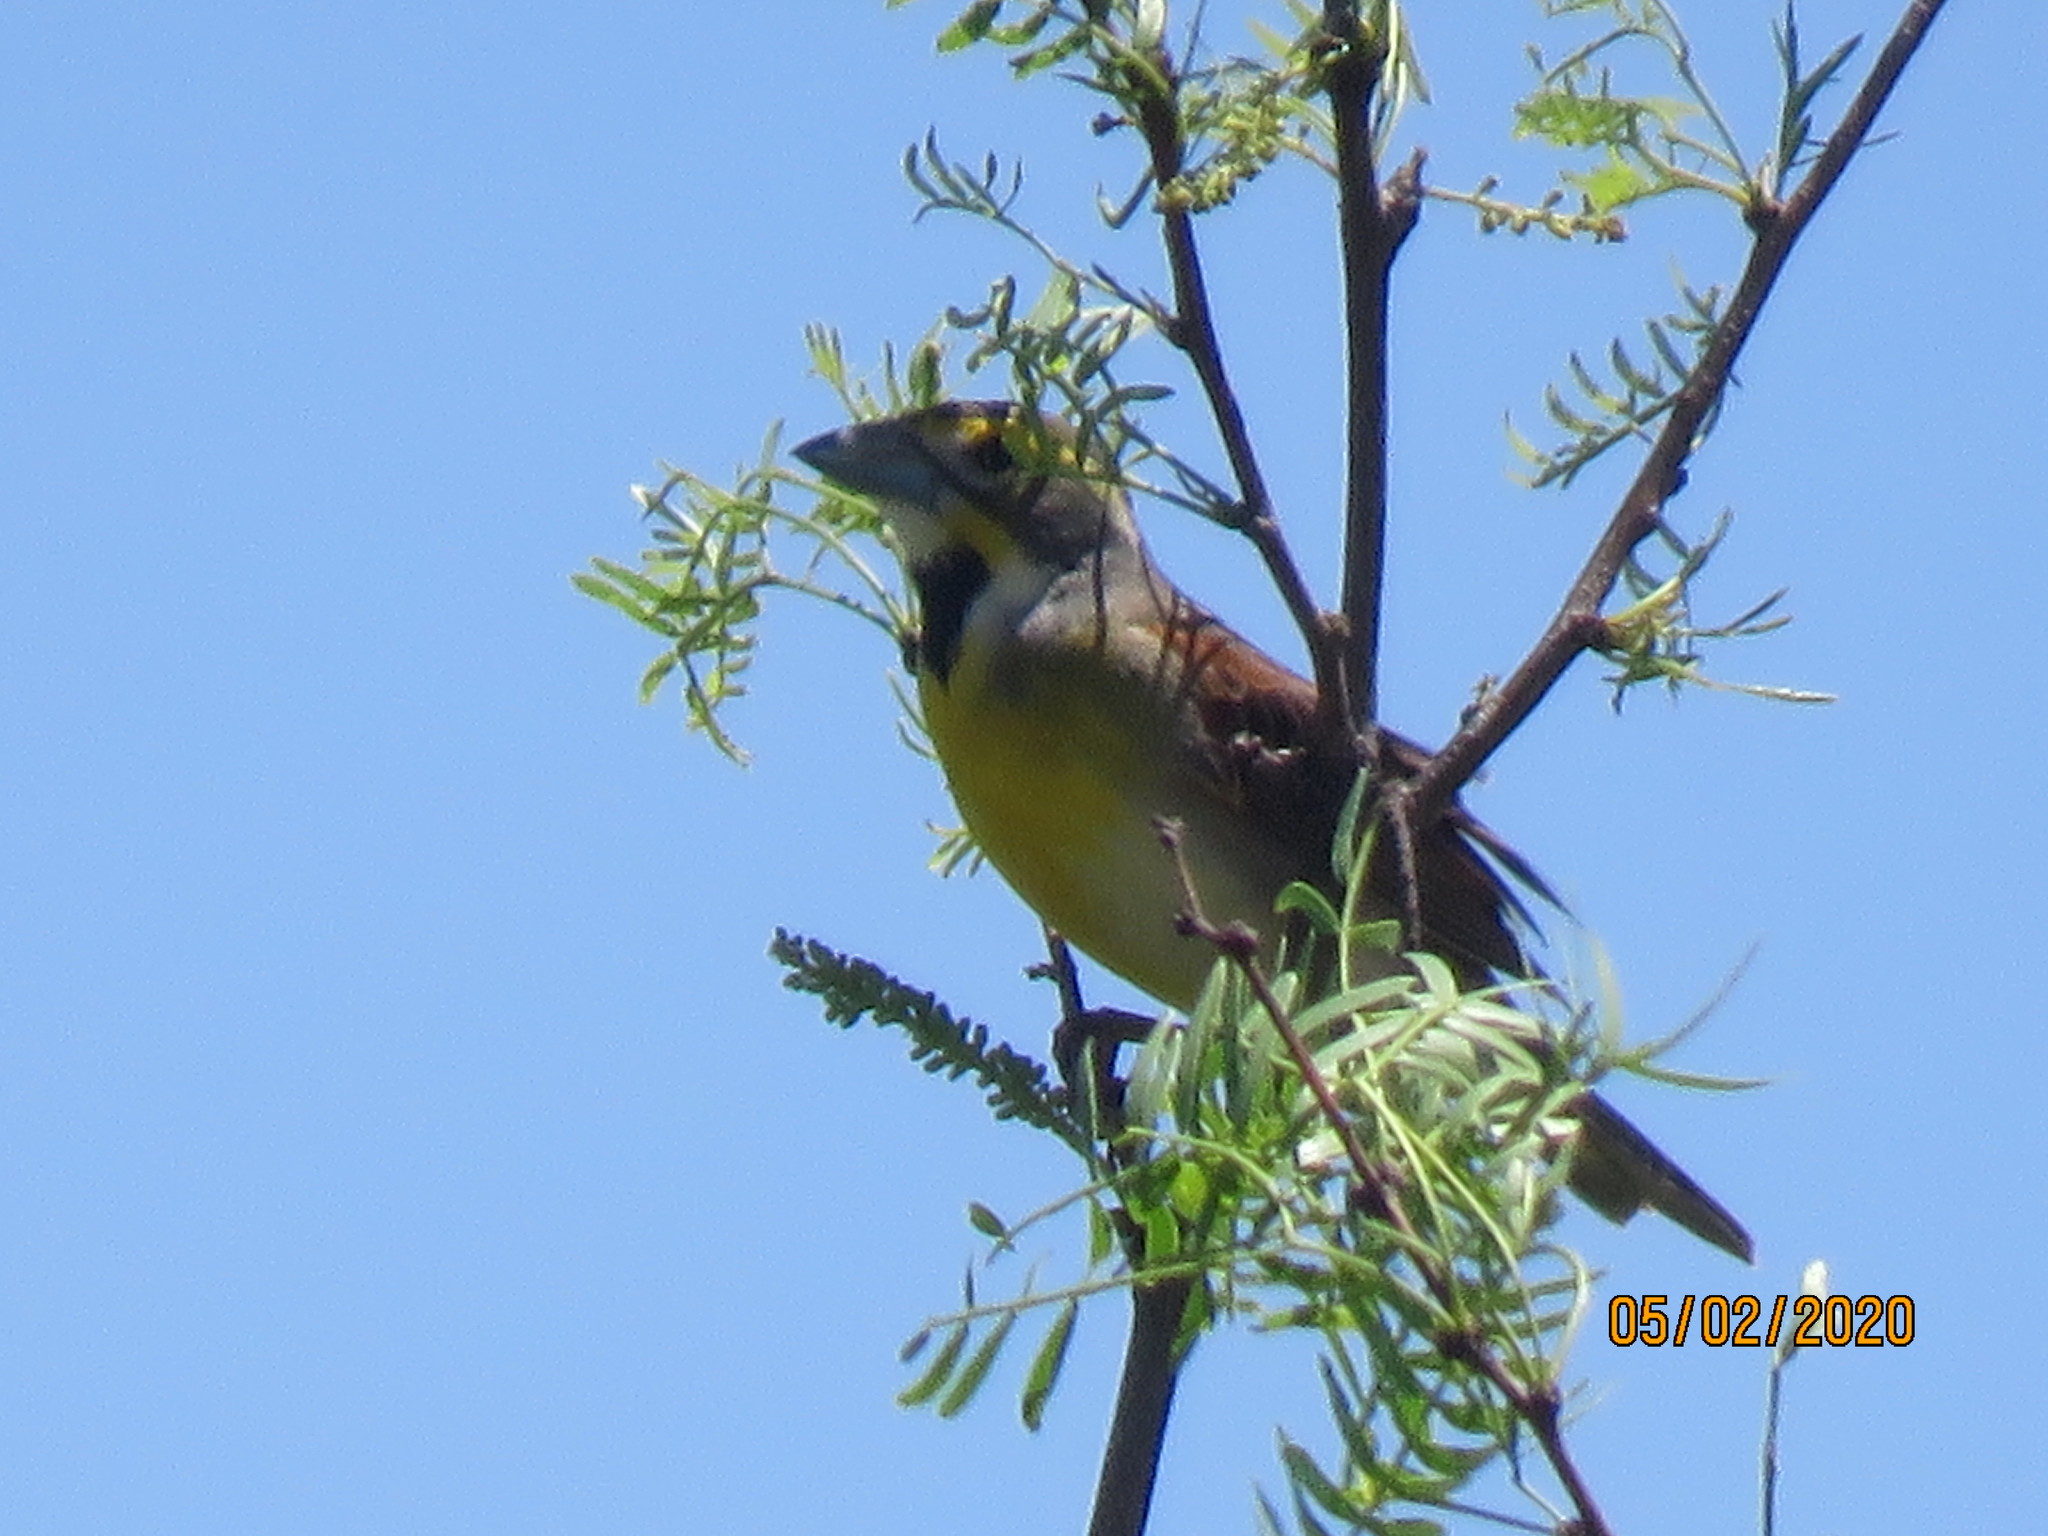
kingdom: Animalia
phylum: Chordata
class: Aves
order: Passeriformes
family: Cardinalidae
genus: Spiza
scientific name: Spiza americana
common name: Dickcissel
